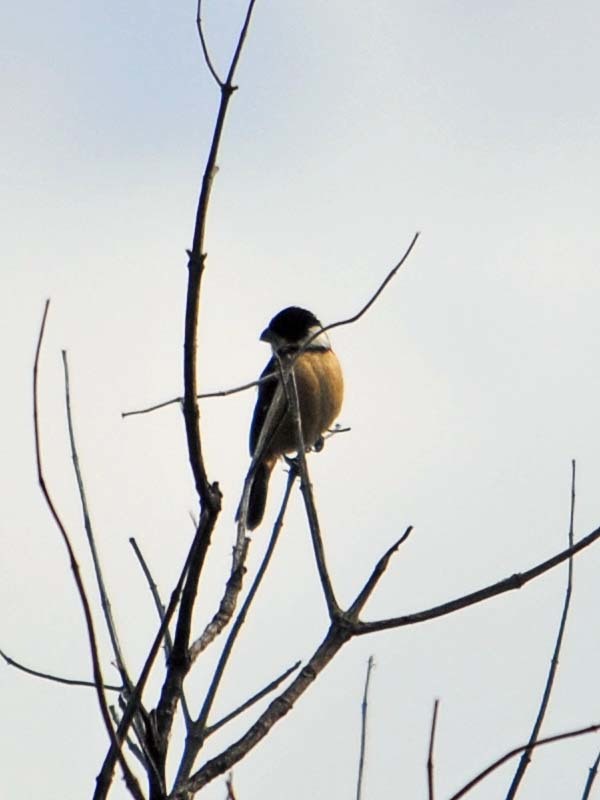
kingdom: Animalia
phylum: Chordata
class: Aves
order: Passeriformes
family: Thraupidae
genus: Sporophila
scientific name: Sporophila torqueola
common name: White-collared seedeater
